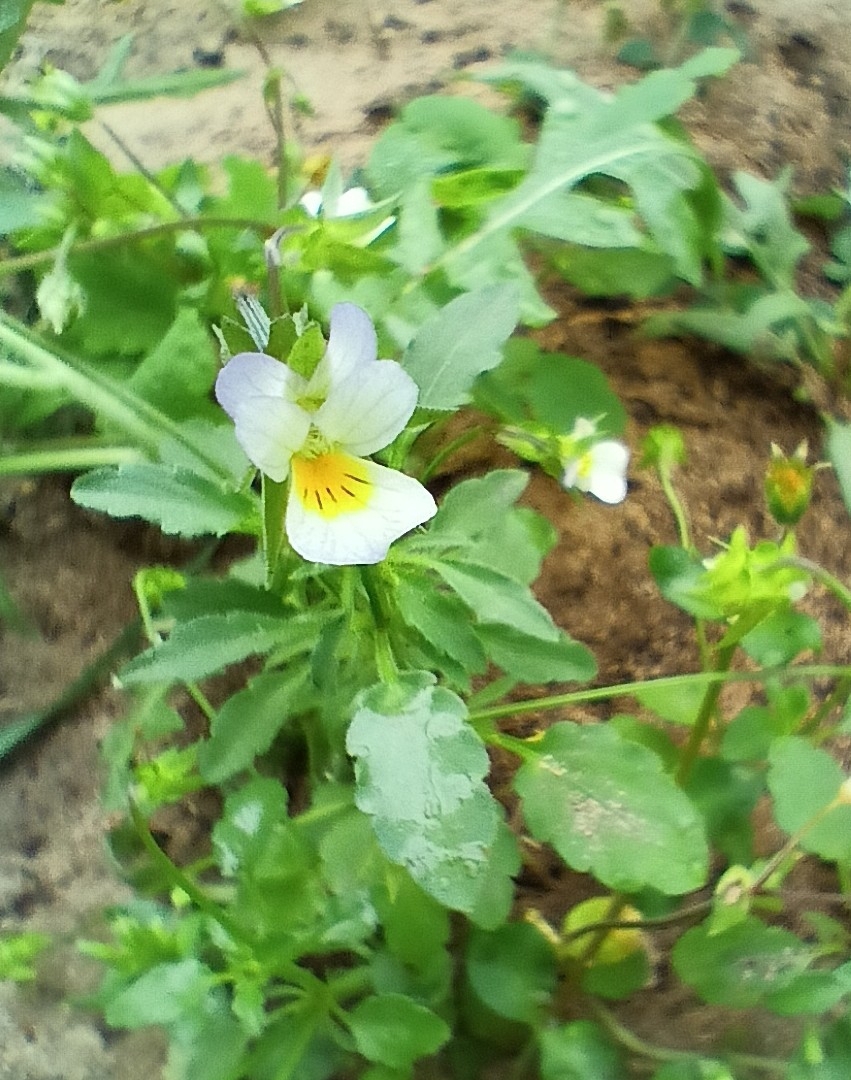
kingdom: Plantae
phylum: Tracheophyta
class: Magnoliopsida
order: Malpighiales
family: Violaceae
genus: Viola
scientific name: Viola arvensis
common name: Field pansy
